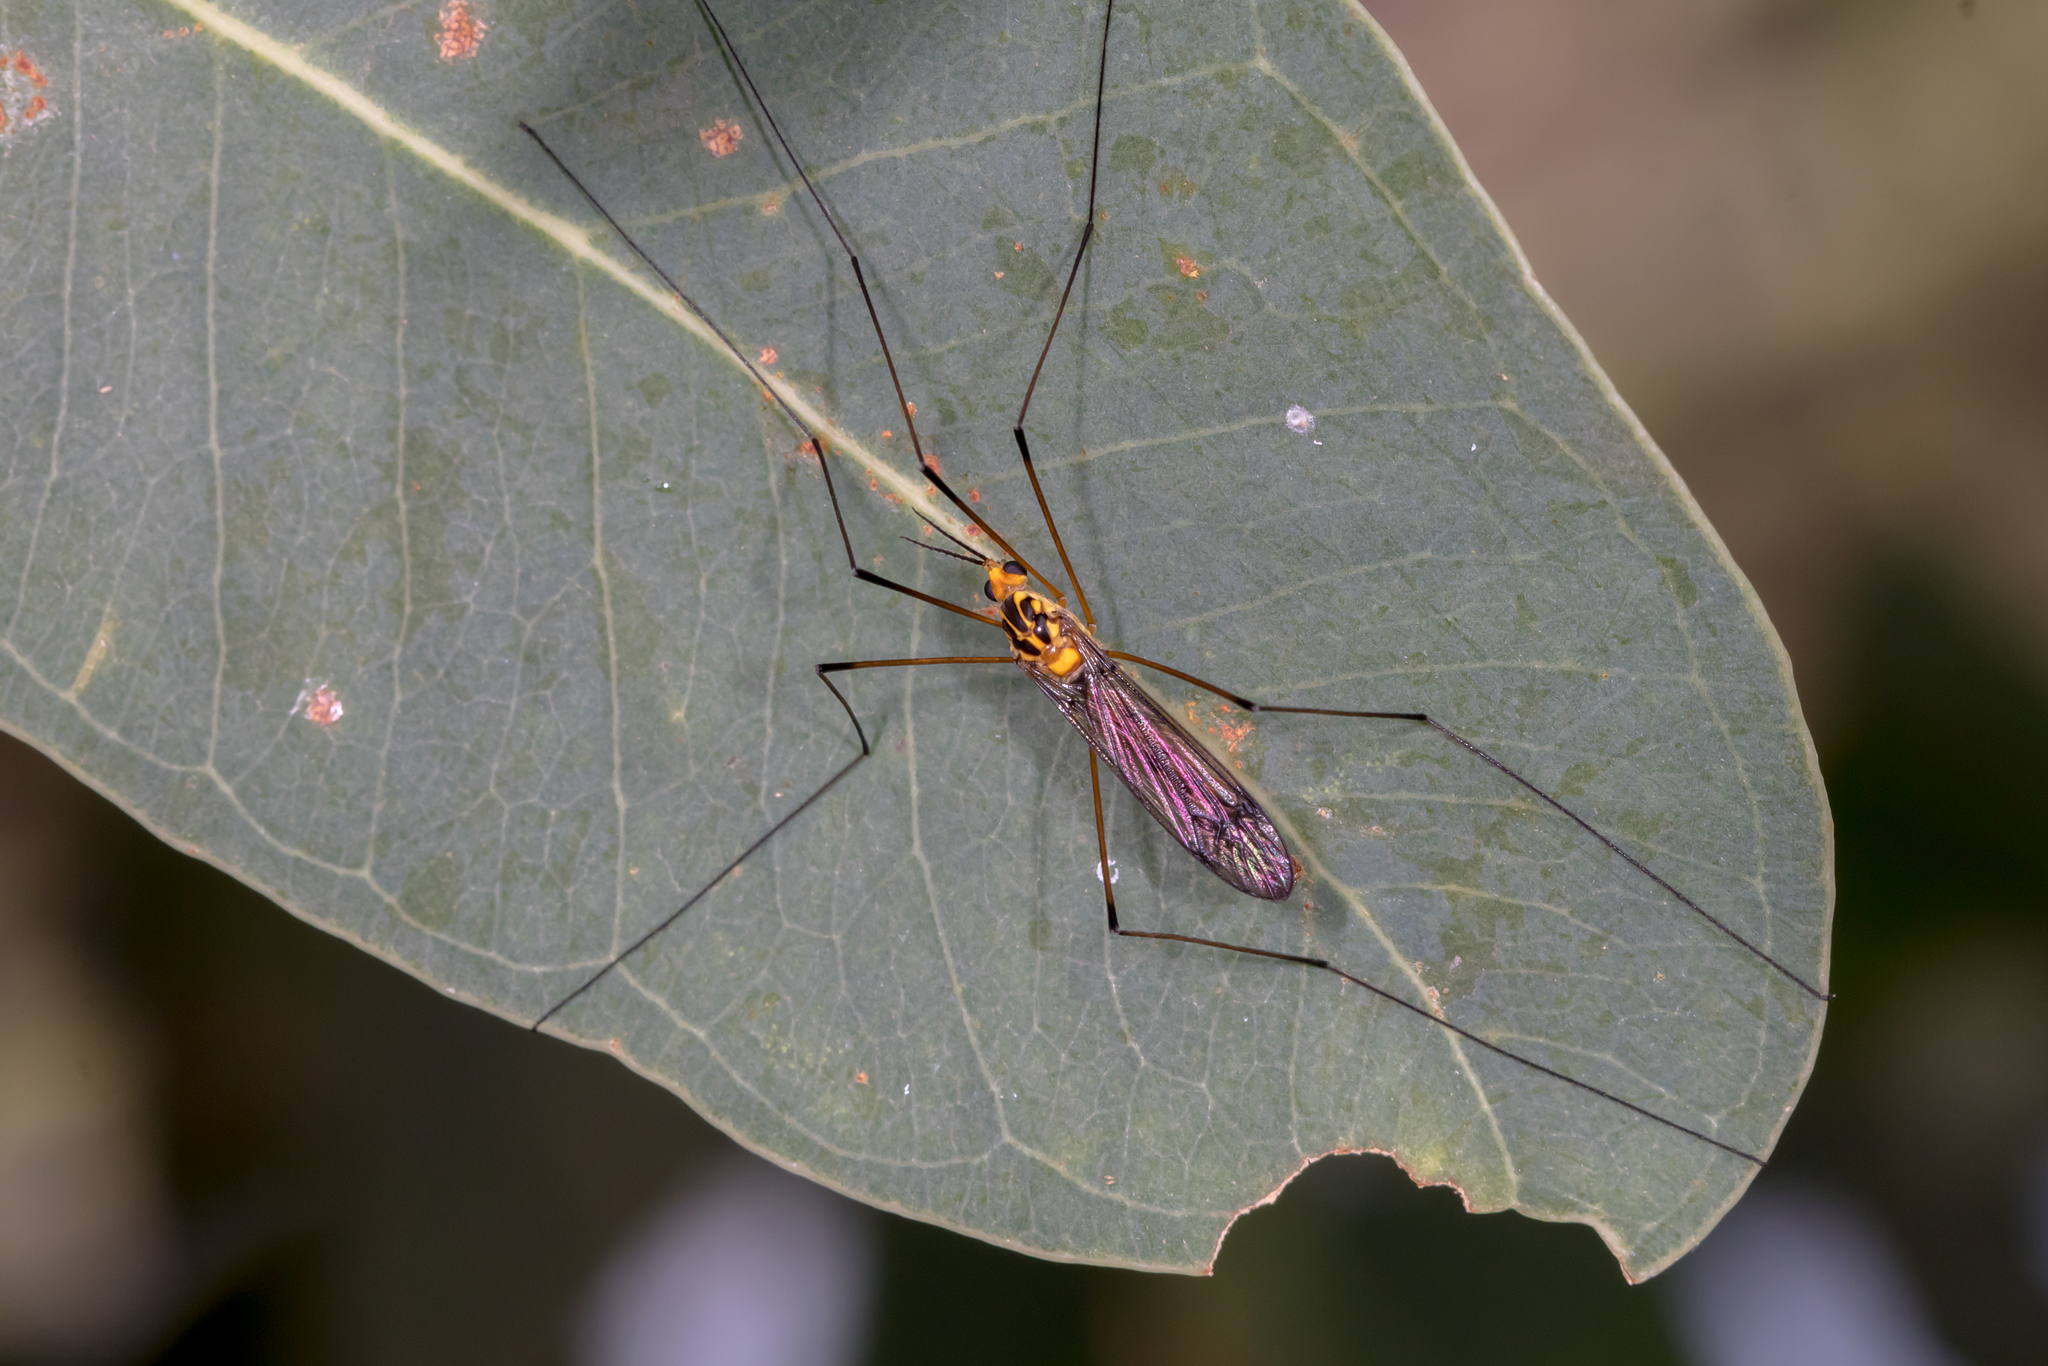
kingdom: Animalia
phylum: Arthropoda
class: Insecta
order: Diptera
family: Tipulidae
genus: Nephrotoma
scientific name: Nephrotoma australasiae
